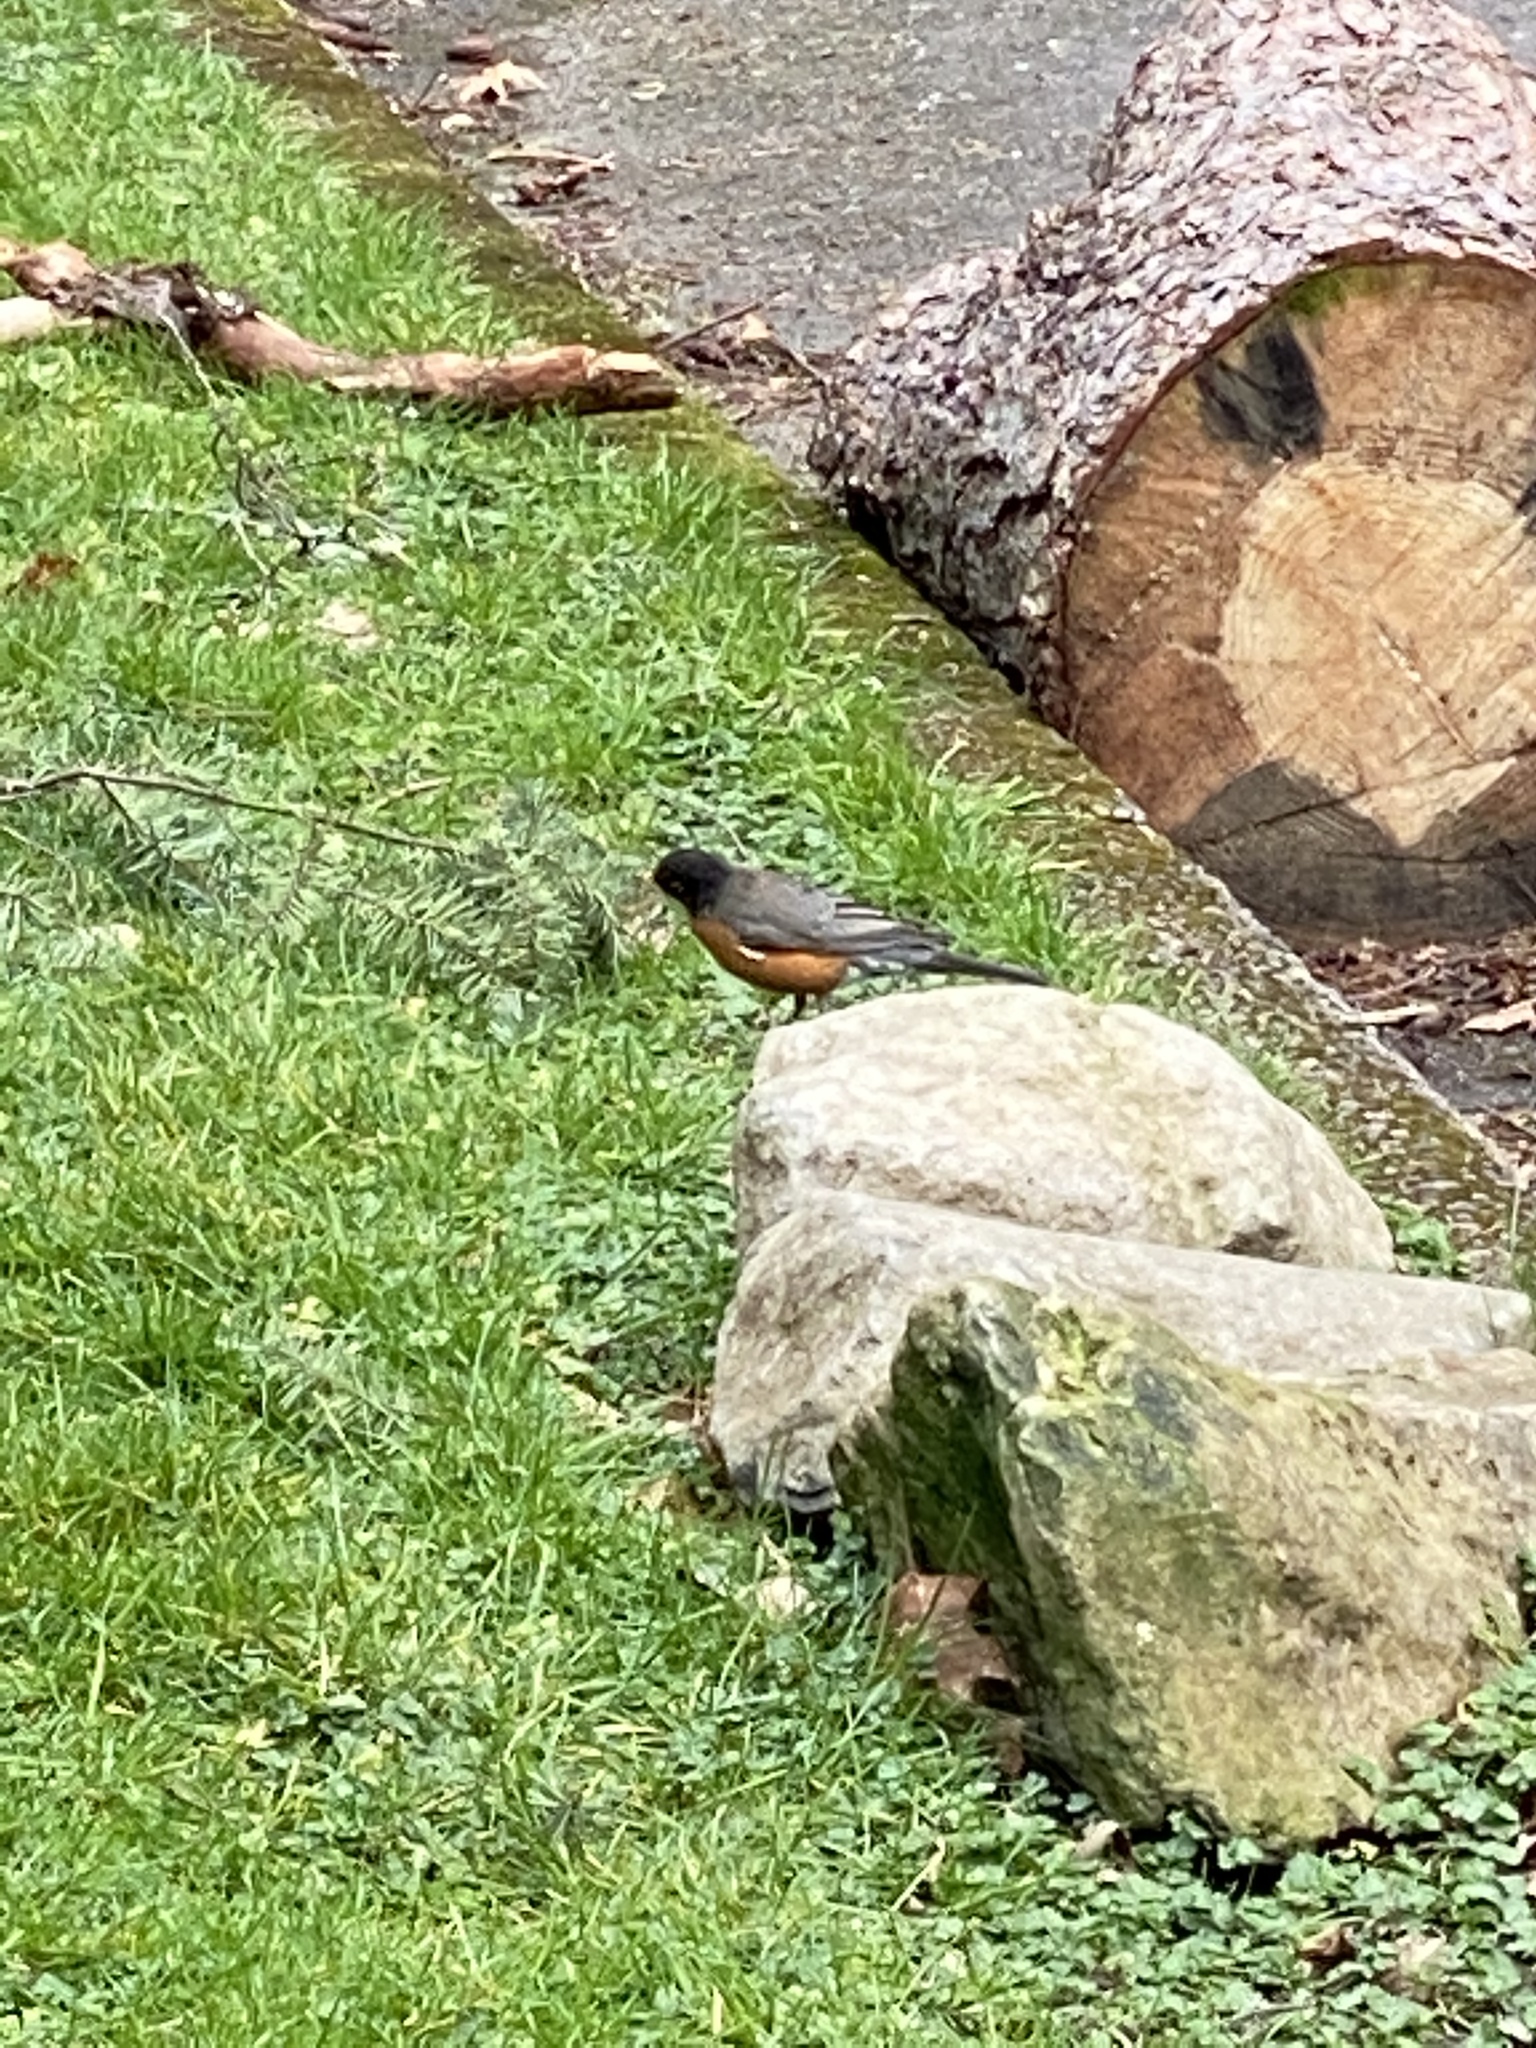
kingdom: Animalia
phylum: Chordata
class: Aves
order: Passeriformes
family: Turdidae
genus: Turdus
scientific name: Turdus migratorius
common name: American robin
